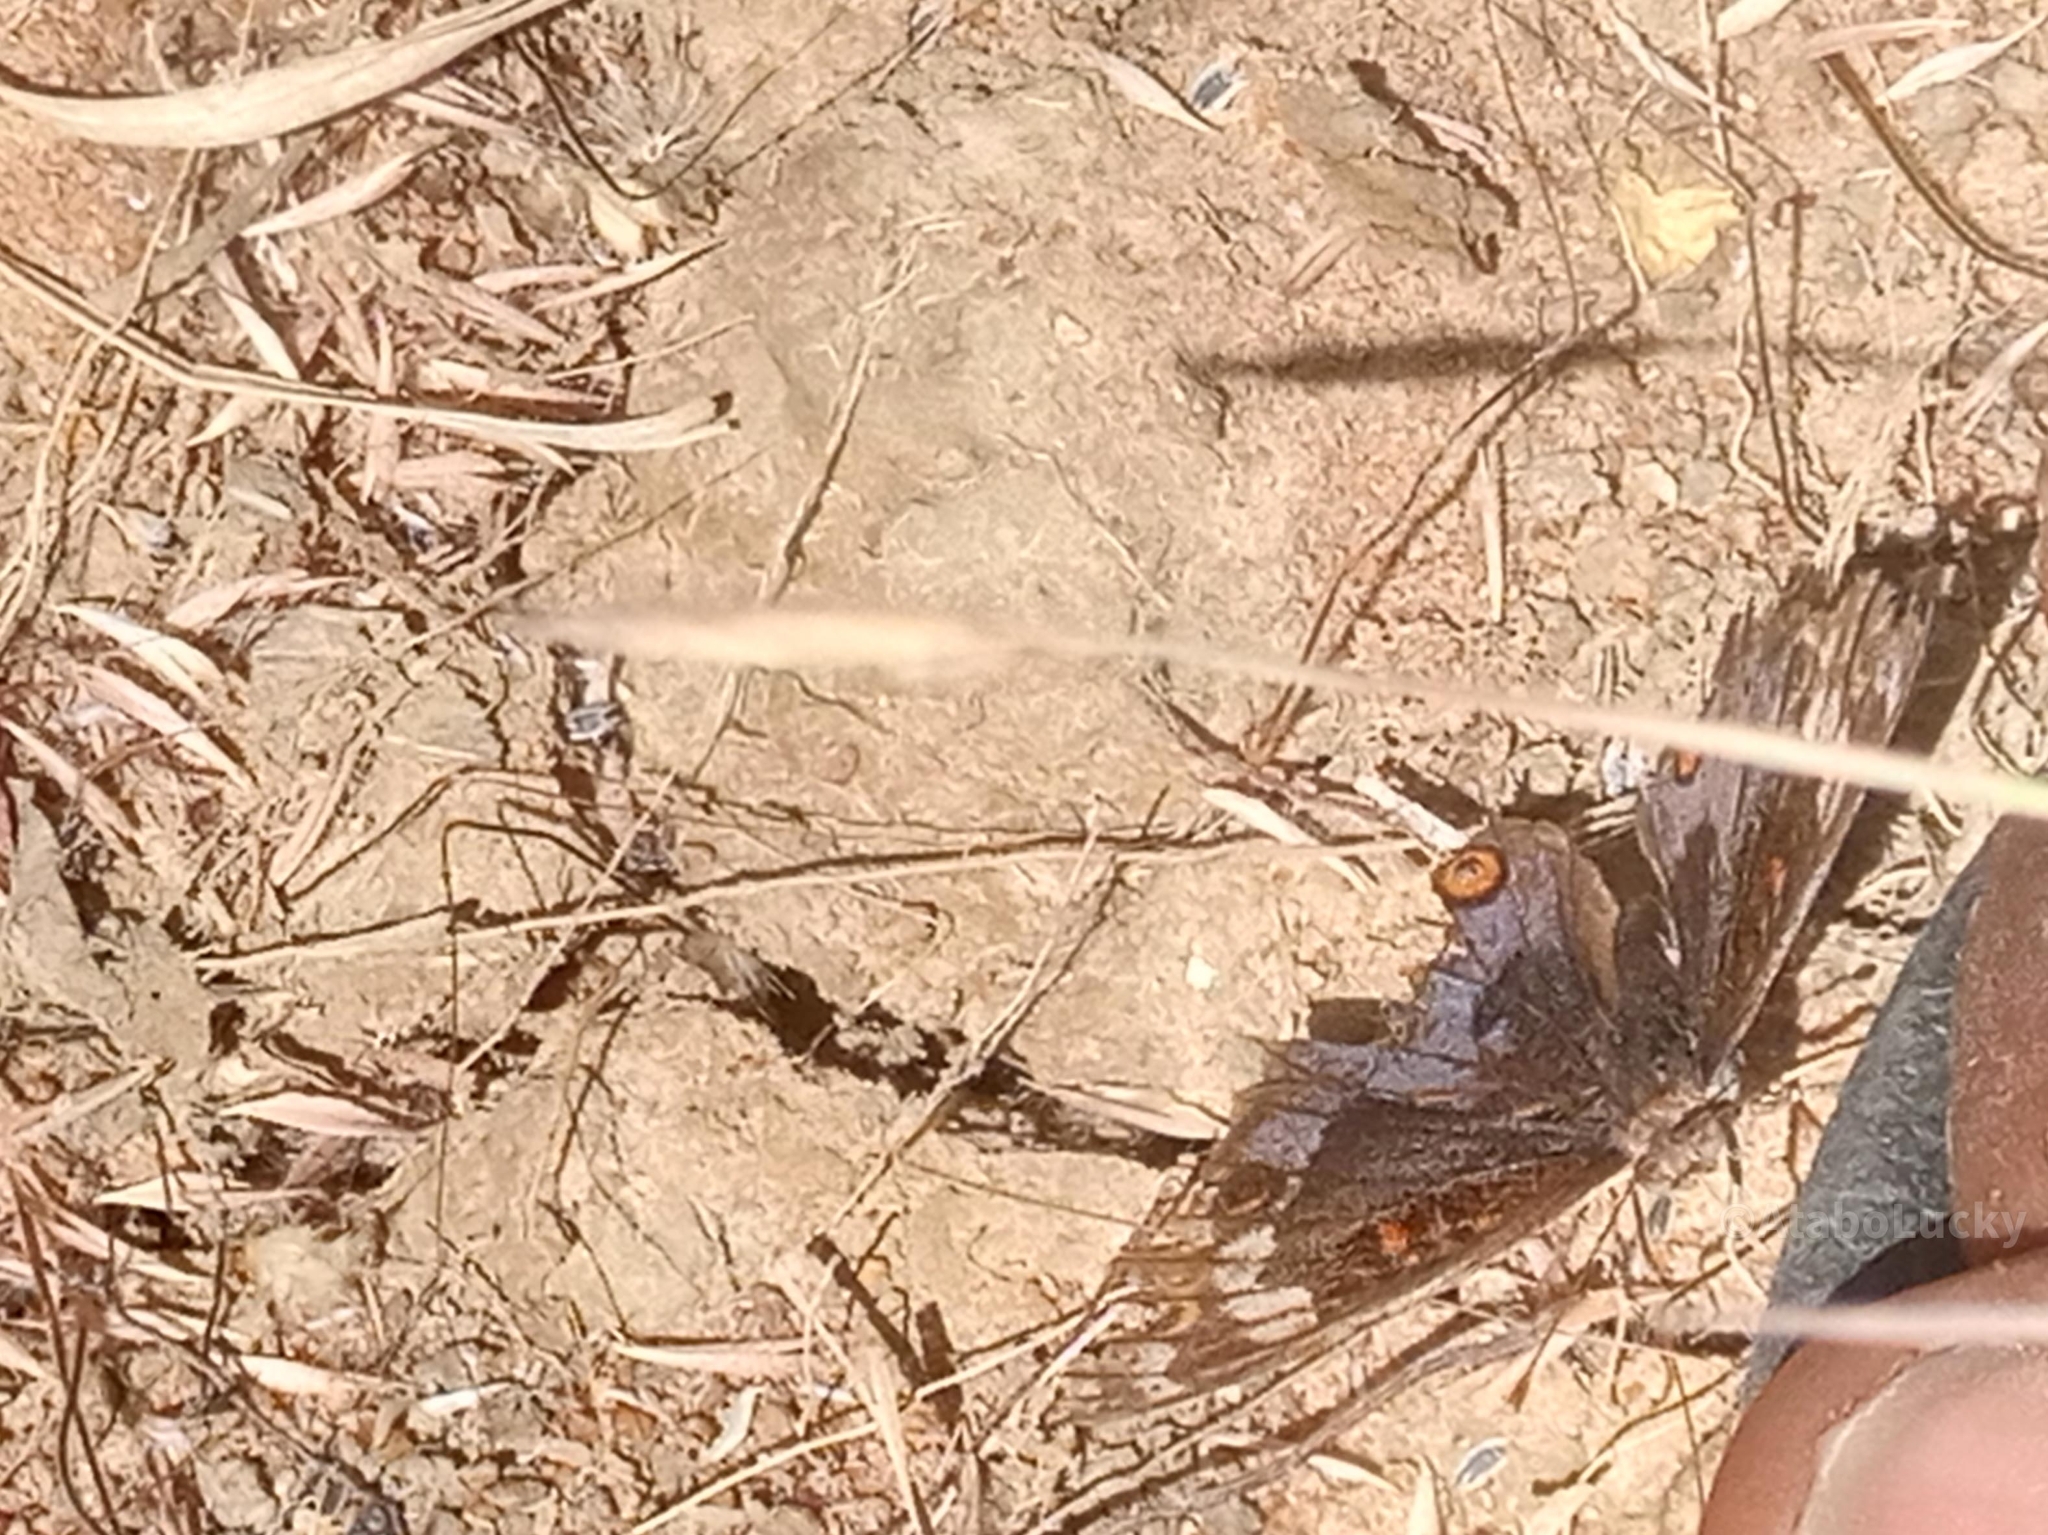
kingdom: Animalia
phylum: Arthropoda
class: Insecta
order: Lepidoptera
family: Nymphalidae
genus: Junonia
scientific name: Junonia orithya
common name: Blue pansy
